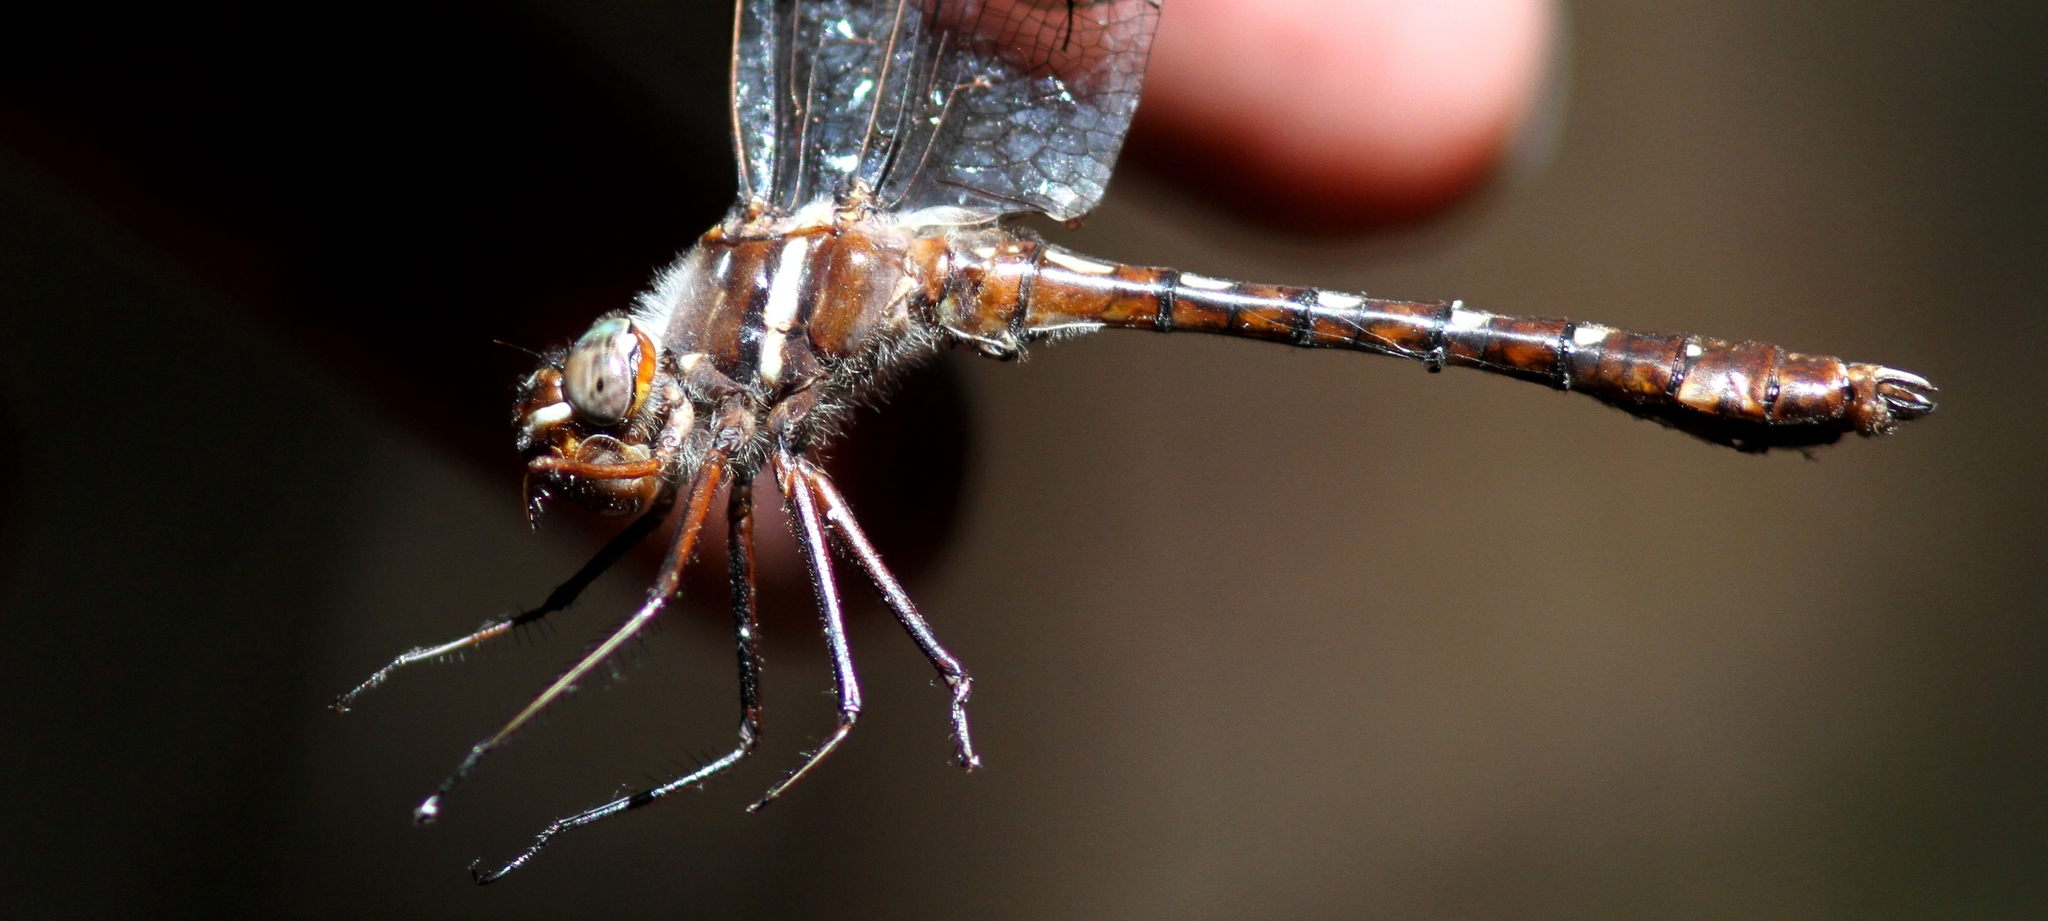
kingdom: Animalia
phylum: Arthropoda
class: Insecta
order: Odonata
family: Macromiidae
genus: Didymops
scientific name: Didymops transversa
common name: Stream cruiser
